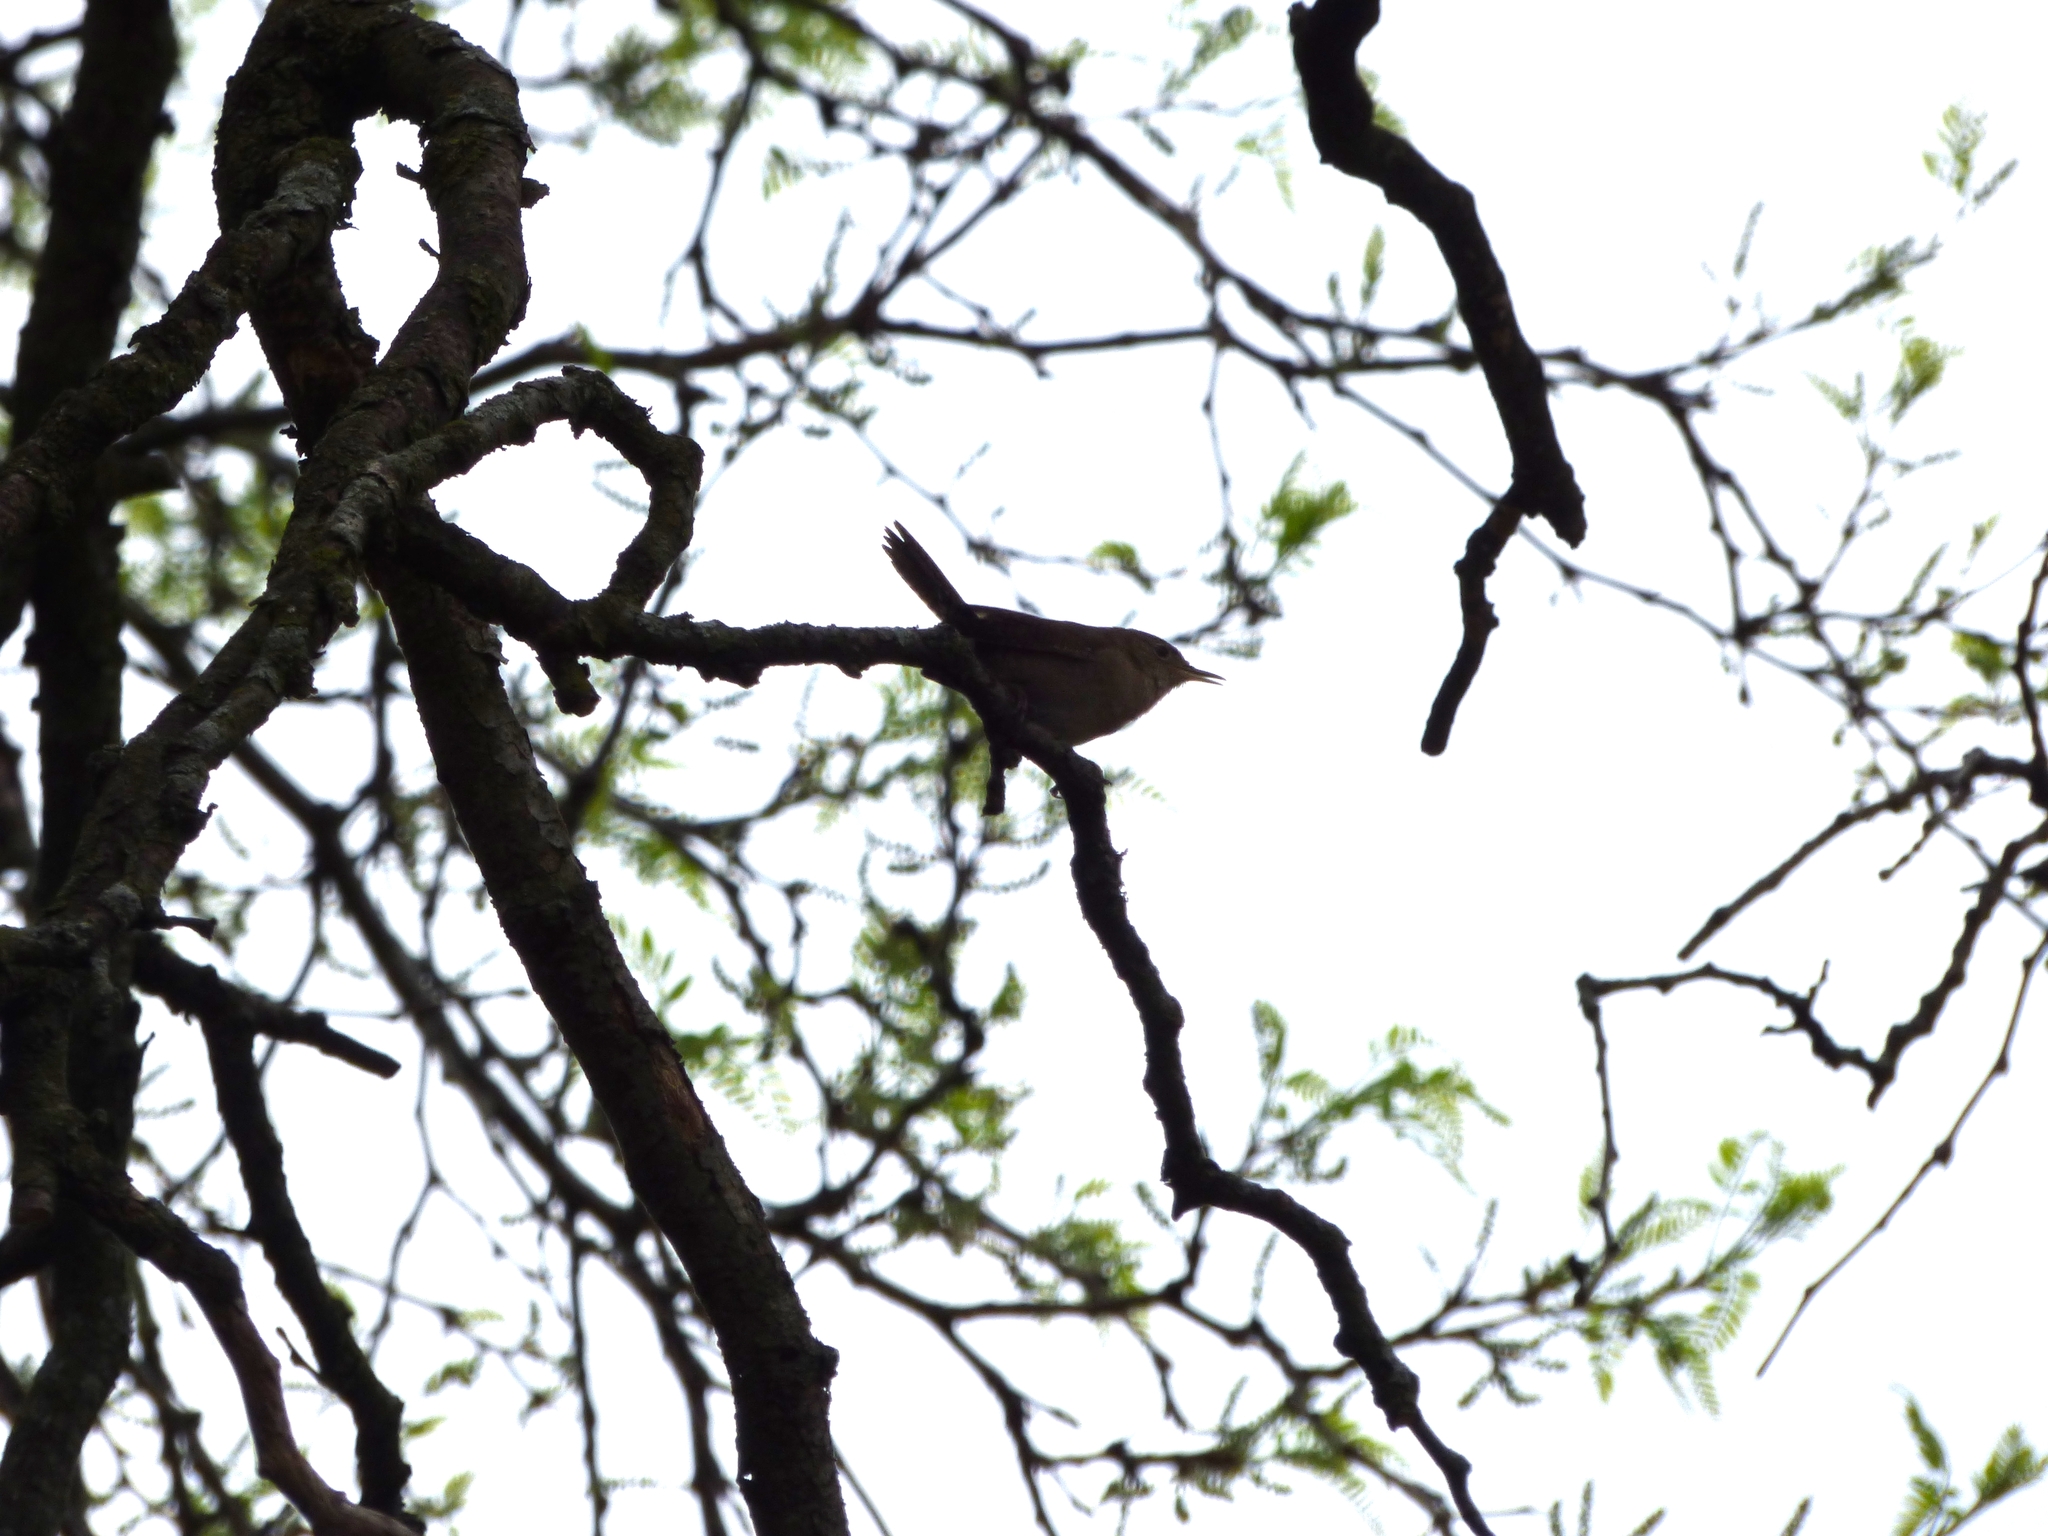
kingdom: Animalia
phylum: Chordata
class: Aves
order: Passeriformes
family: Troglodytidae
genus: Troglodytes
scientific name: Troglodytes aedon
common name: House wren
